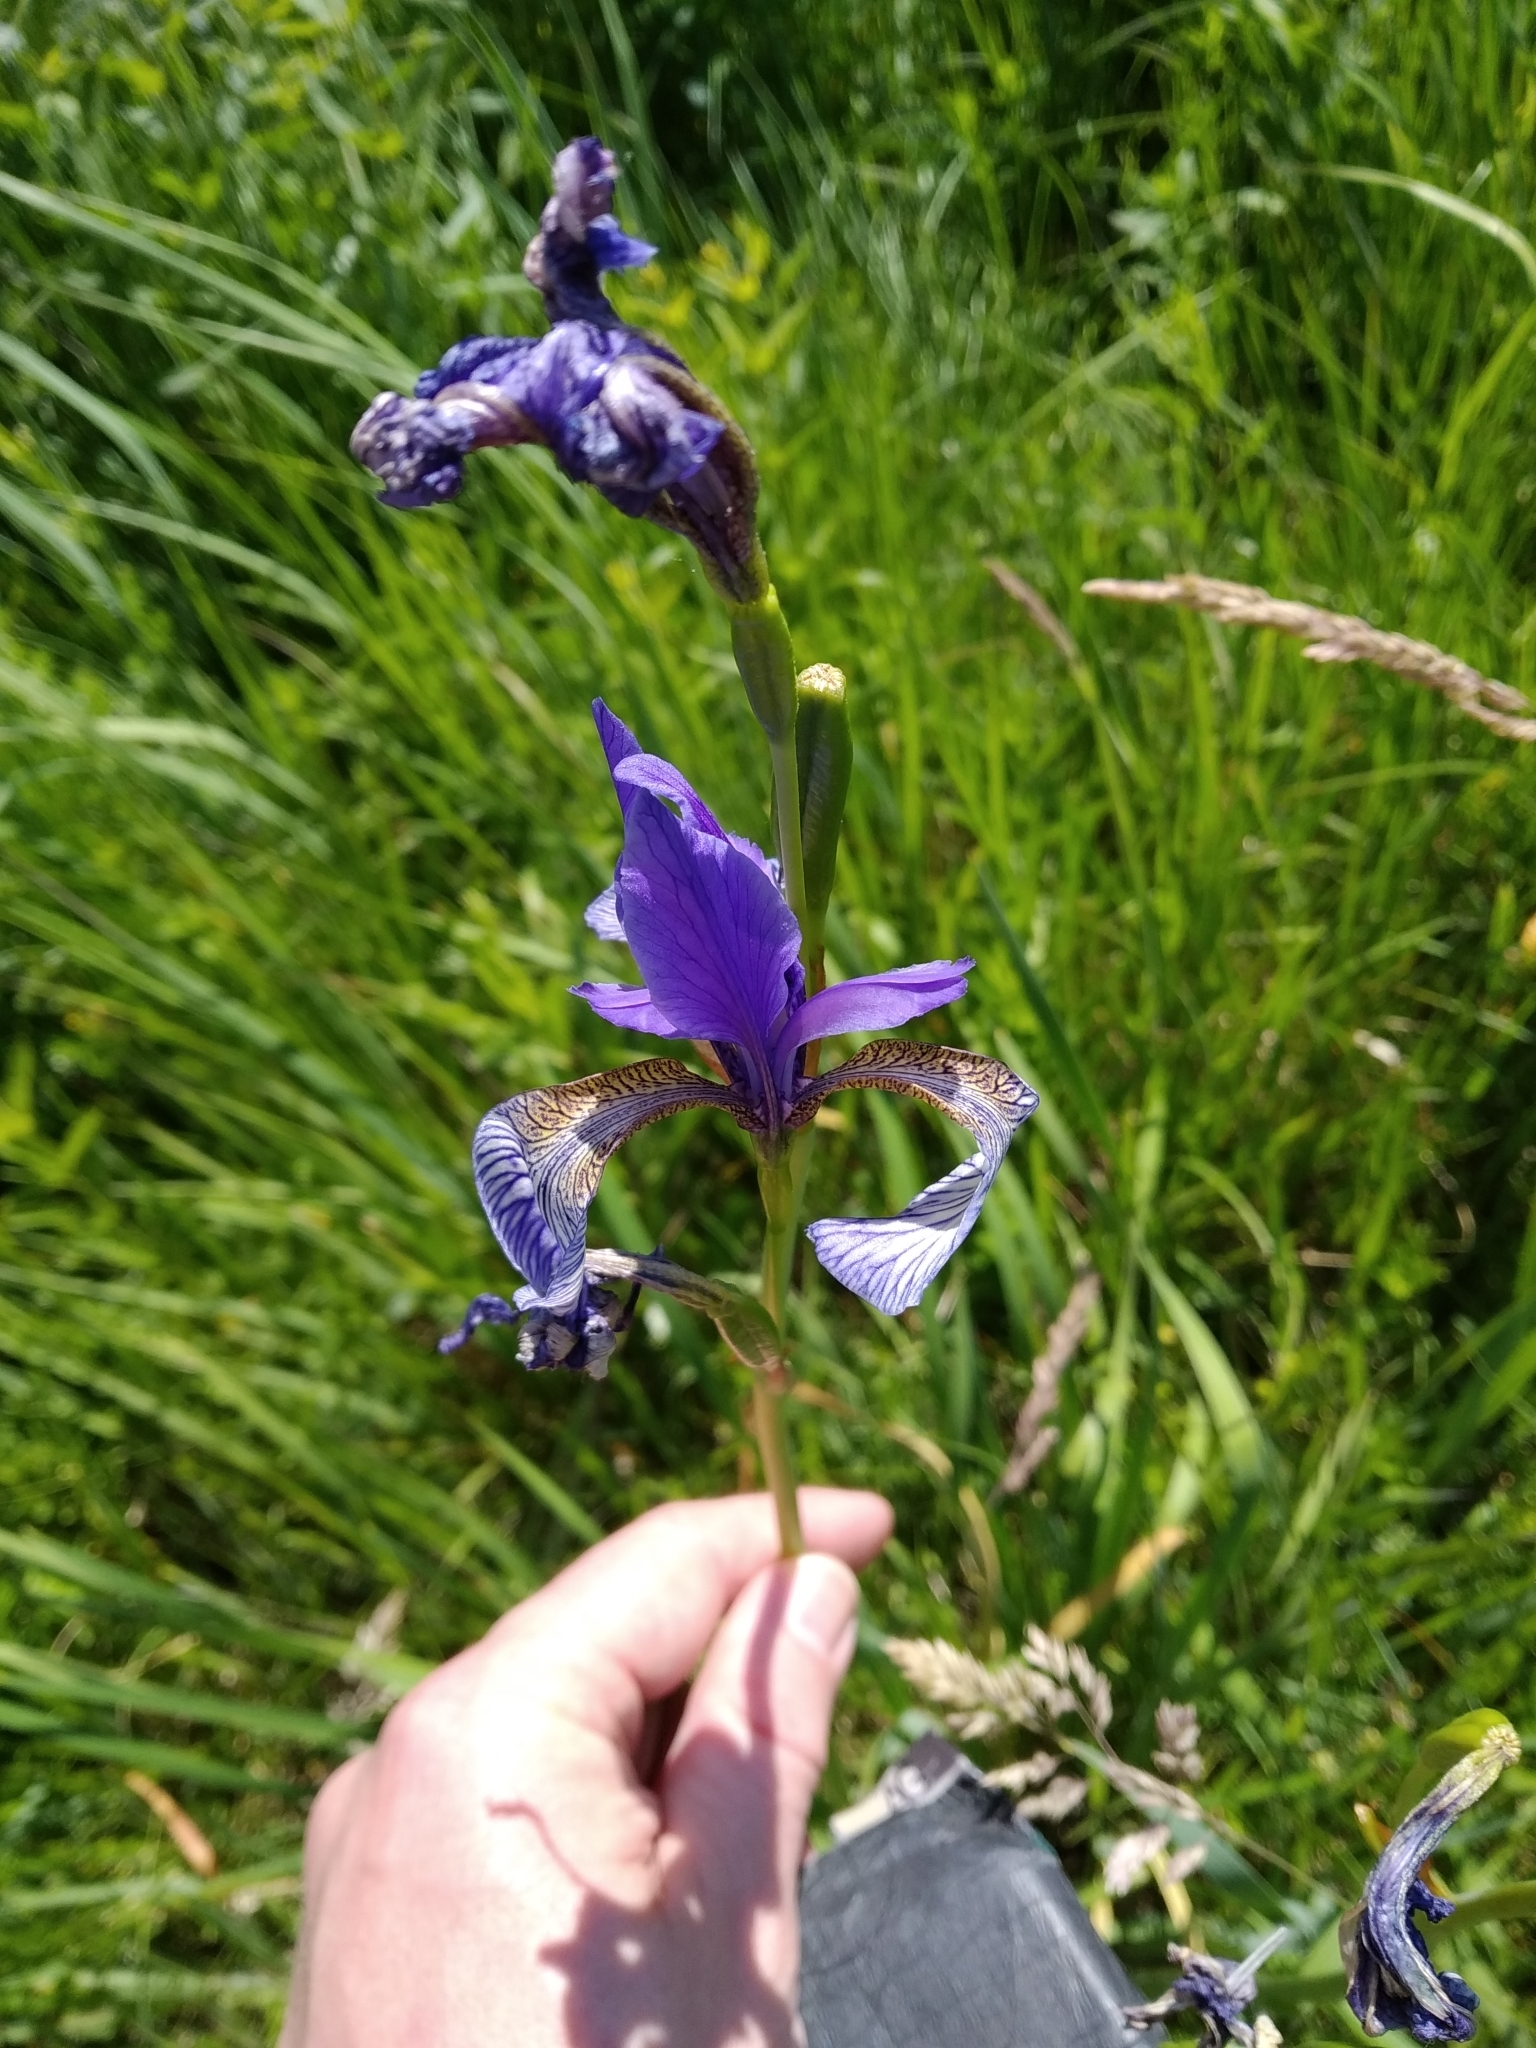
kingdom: Plantae
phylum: Tracheophyta
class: Liliopsida
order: Asparagales
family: Iridaceae
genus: Iris
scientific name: Iris sibirica
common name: Siberian iris
